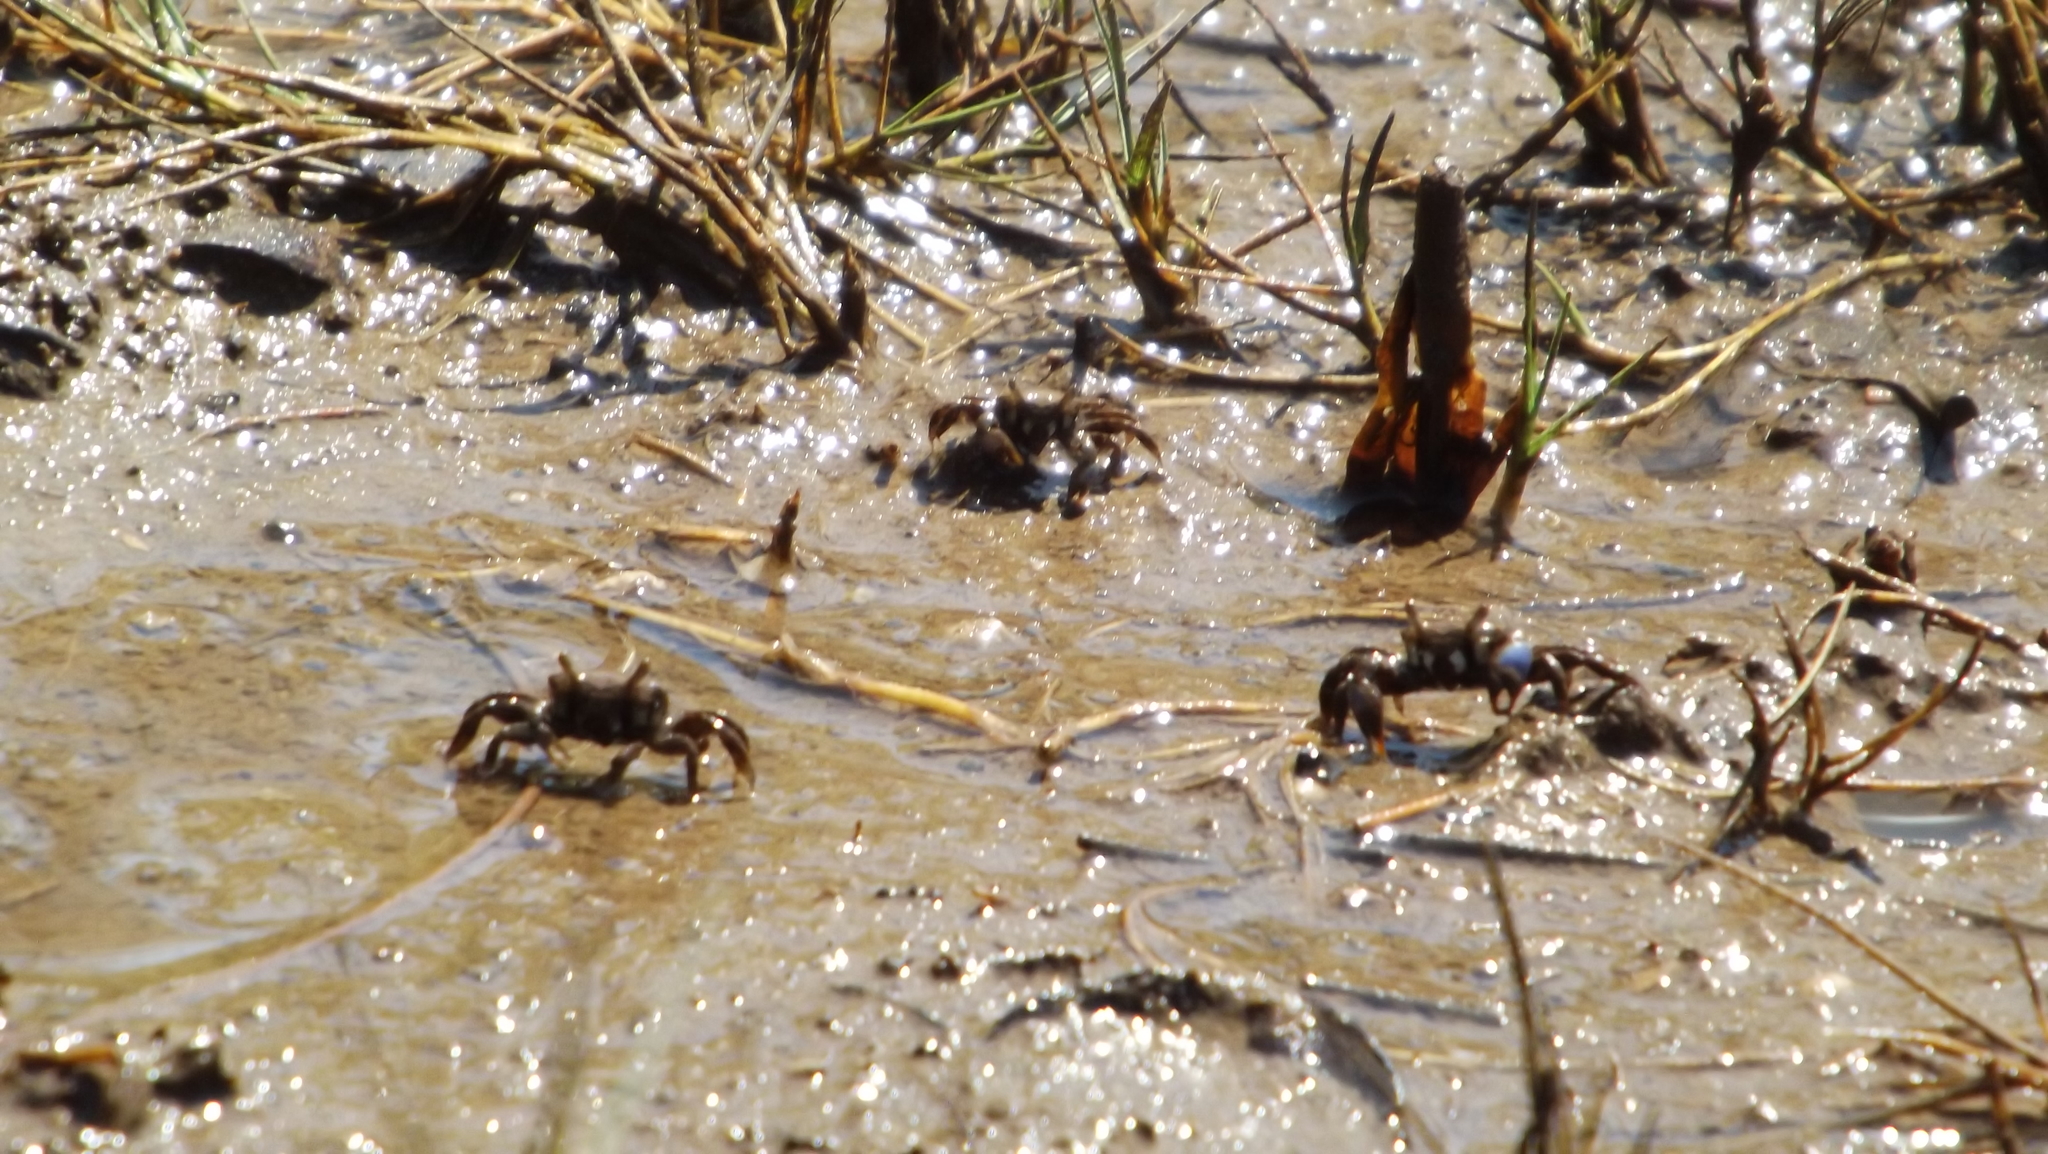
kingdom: Animalia
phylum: Arthropoda
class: Malacostraca
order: Decapoda
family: Macrophthalmidae
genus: Australoplax
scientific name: Australoplax tridentata
